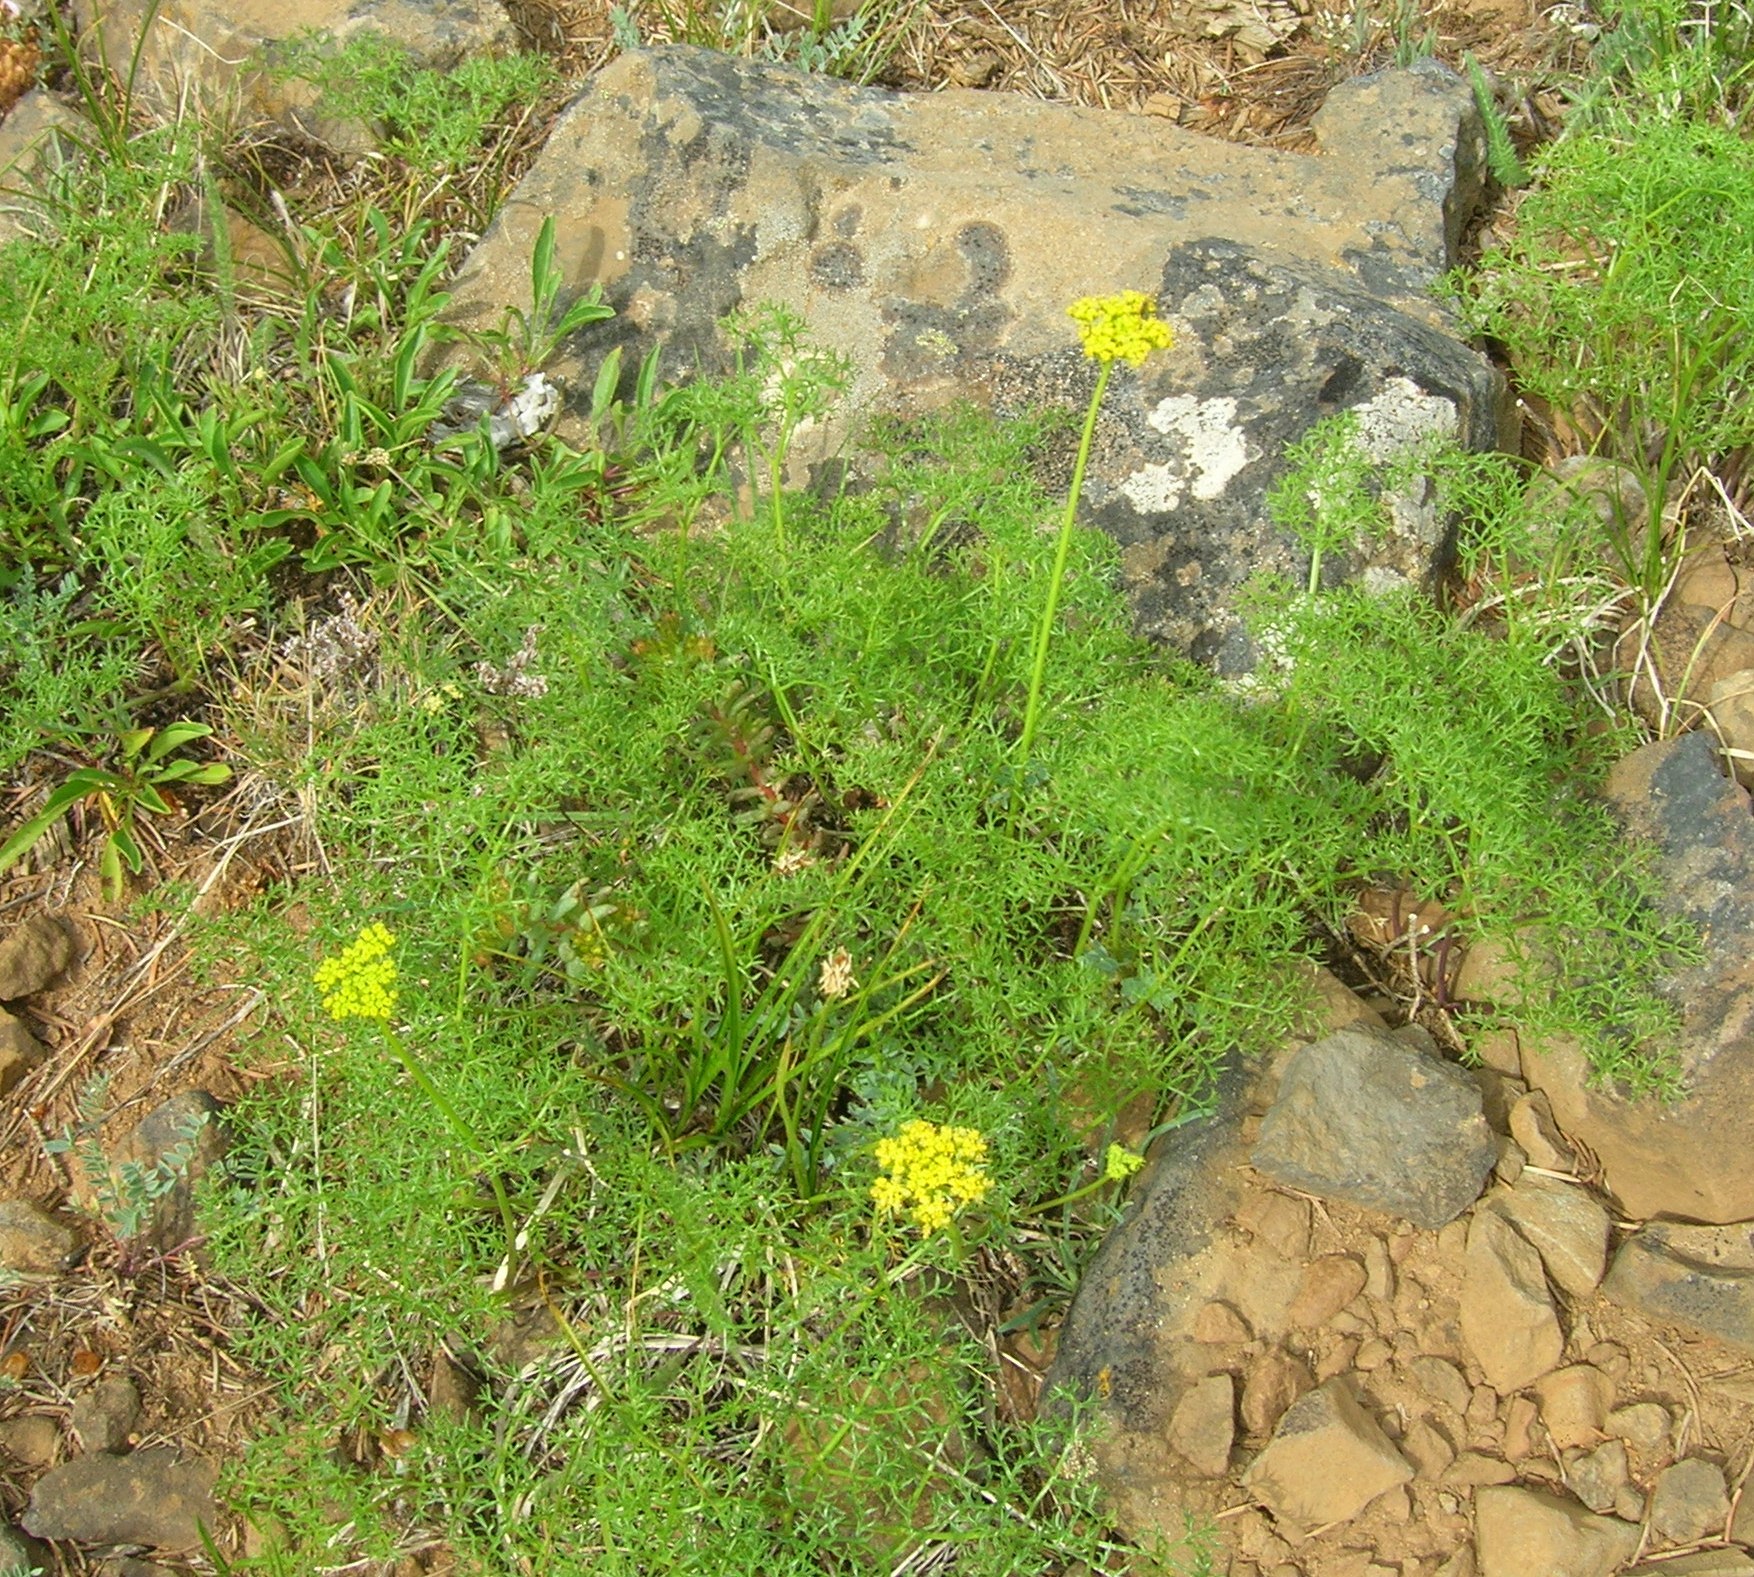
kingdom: Plantae
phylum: Tracheophyta
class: Magnoliopsida
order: Apiales
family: Apiaceae
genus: Lomatium
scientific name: Lomatium dissectum
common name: Lomatium
